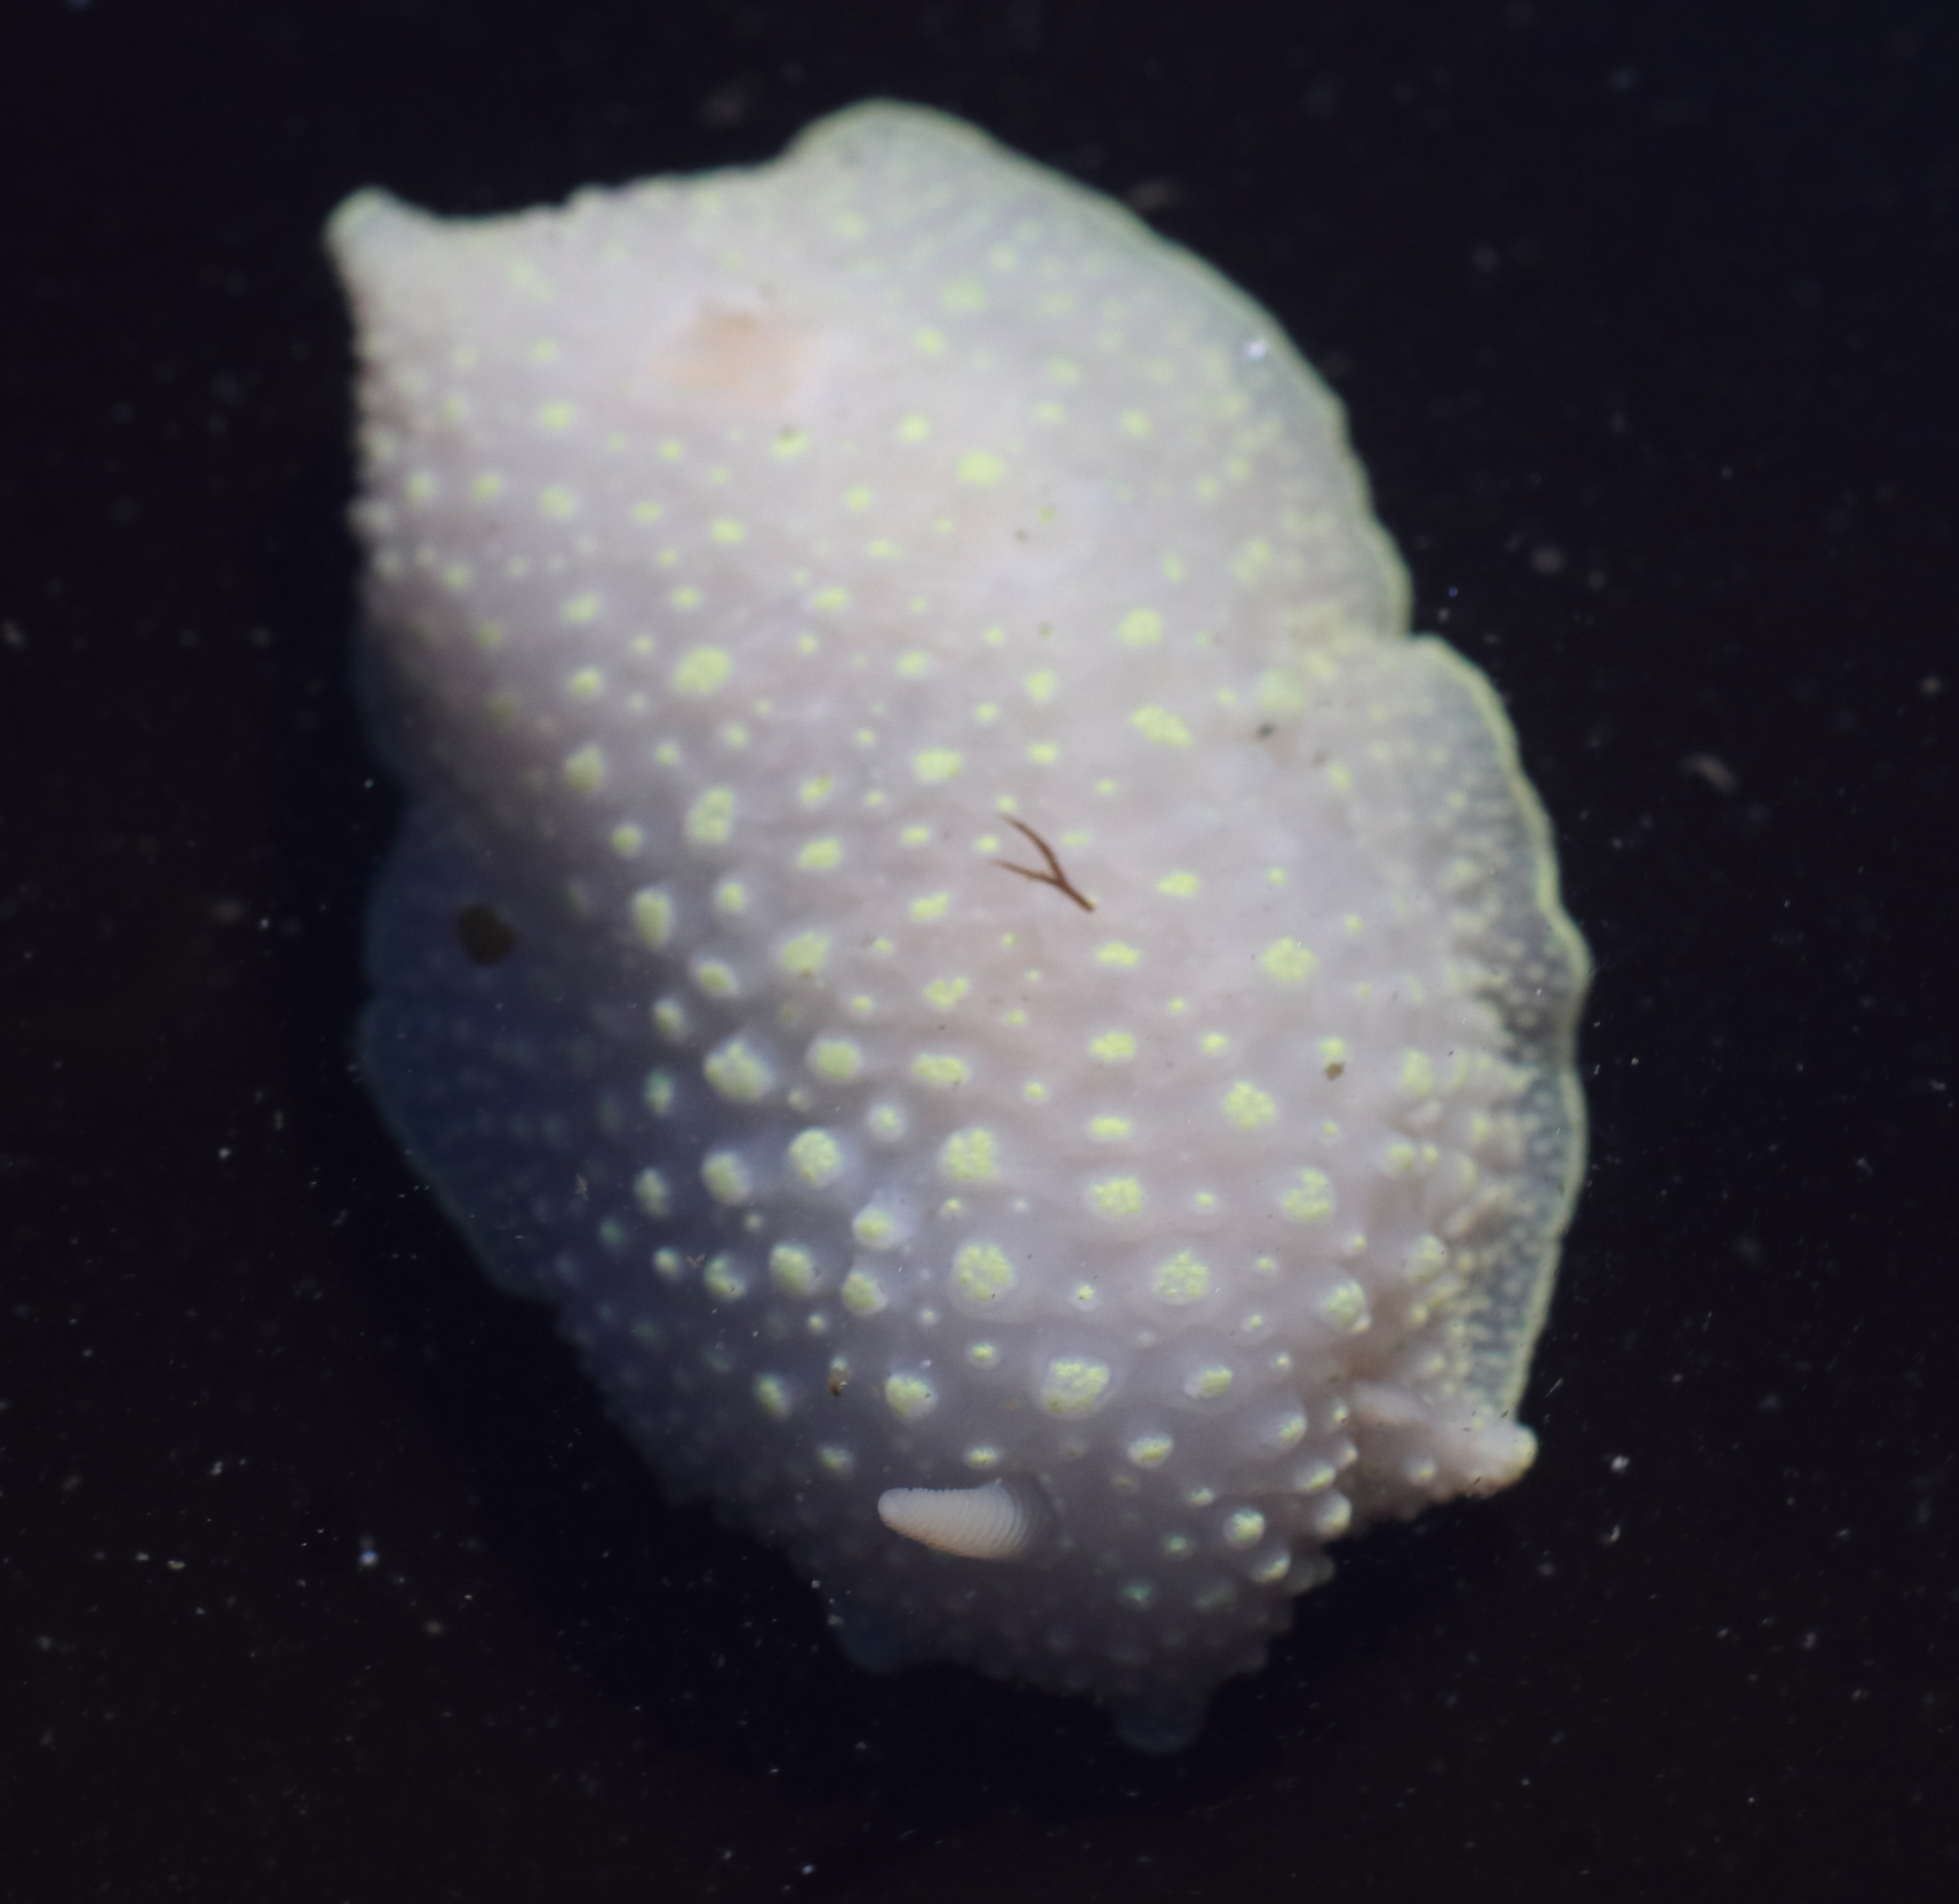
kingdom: Animalia
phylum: Mollusca
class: Gastropoda
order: Nudibranchia
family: Cadlinidae
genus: Cadlina
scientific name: Cadlina luteomarginata
